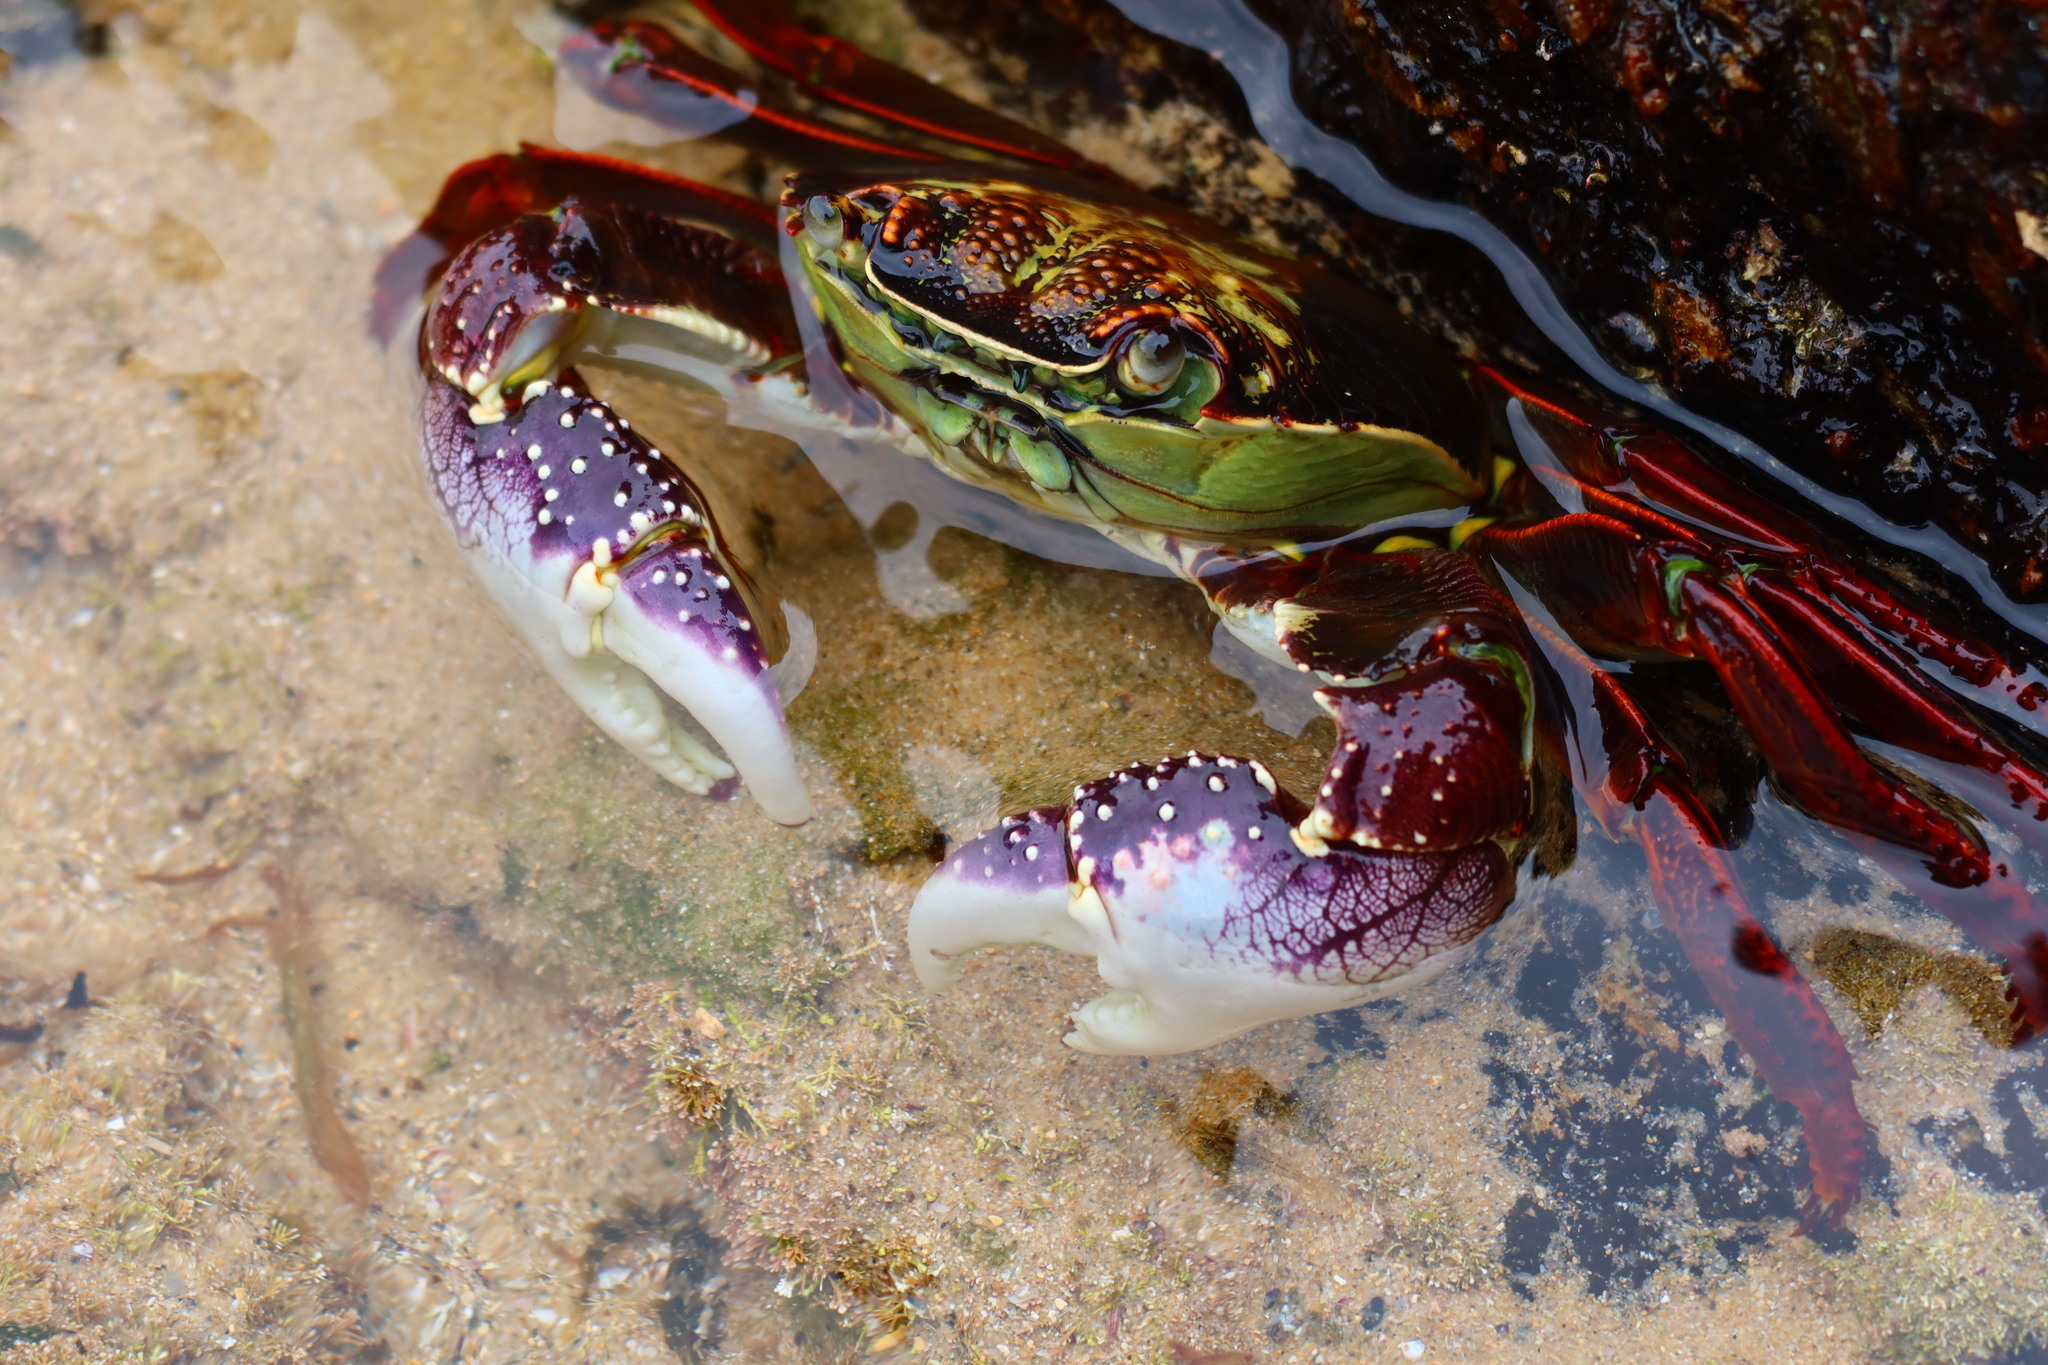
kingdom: Animalia
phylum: Arthropoda
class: Malacostraca
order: Decapoda
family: Grapsidae
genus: Leptograpsus
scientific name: Leptograpsus variegatus
